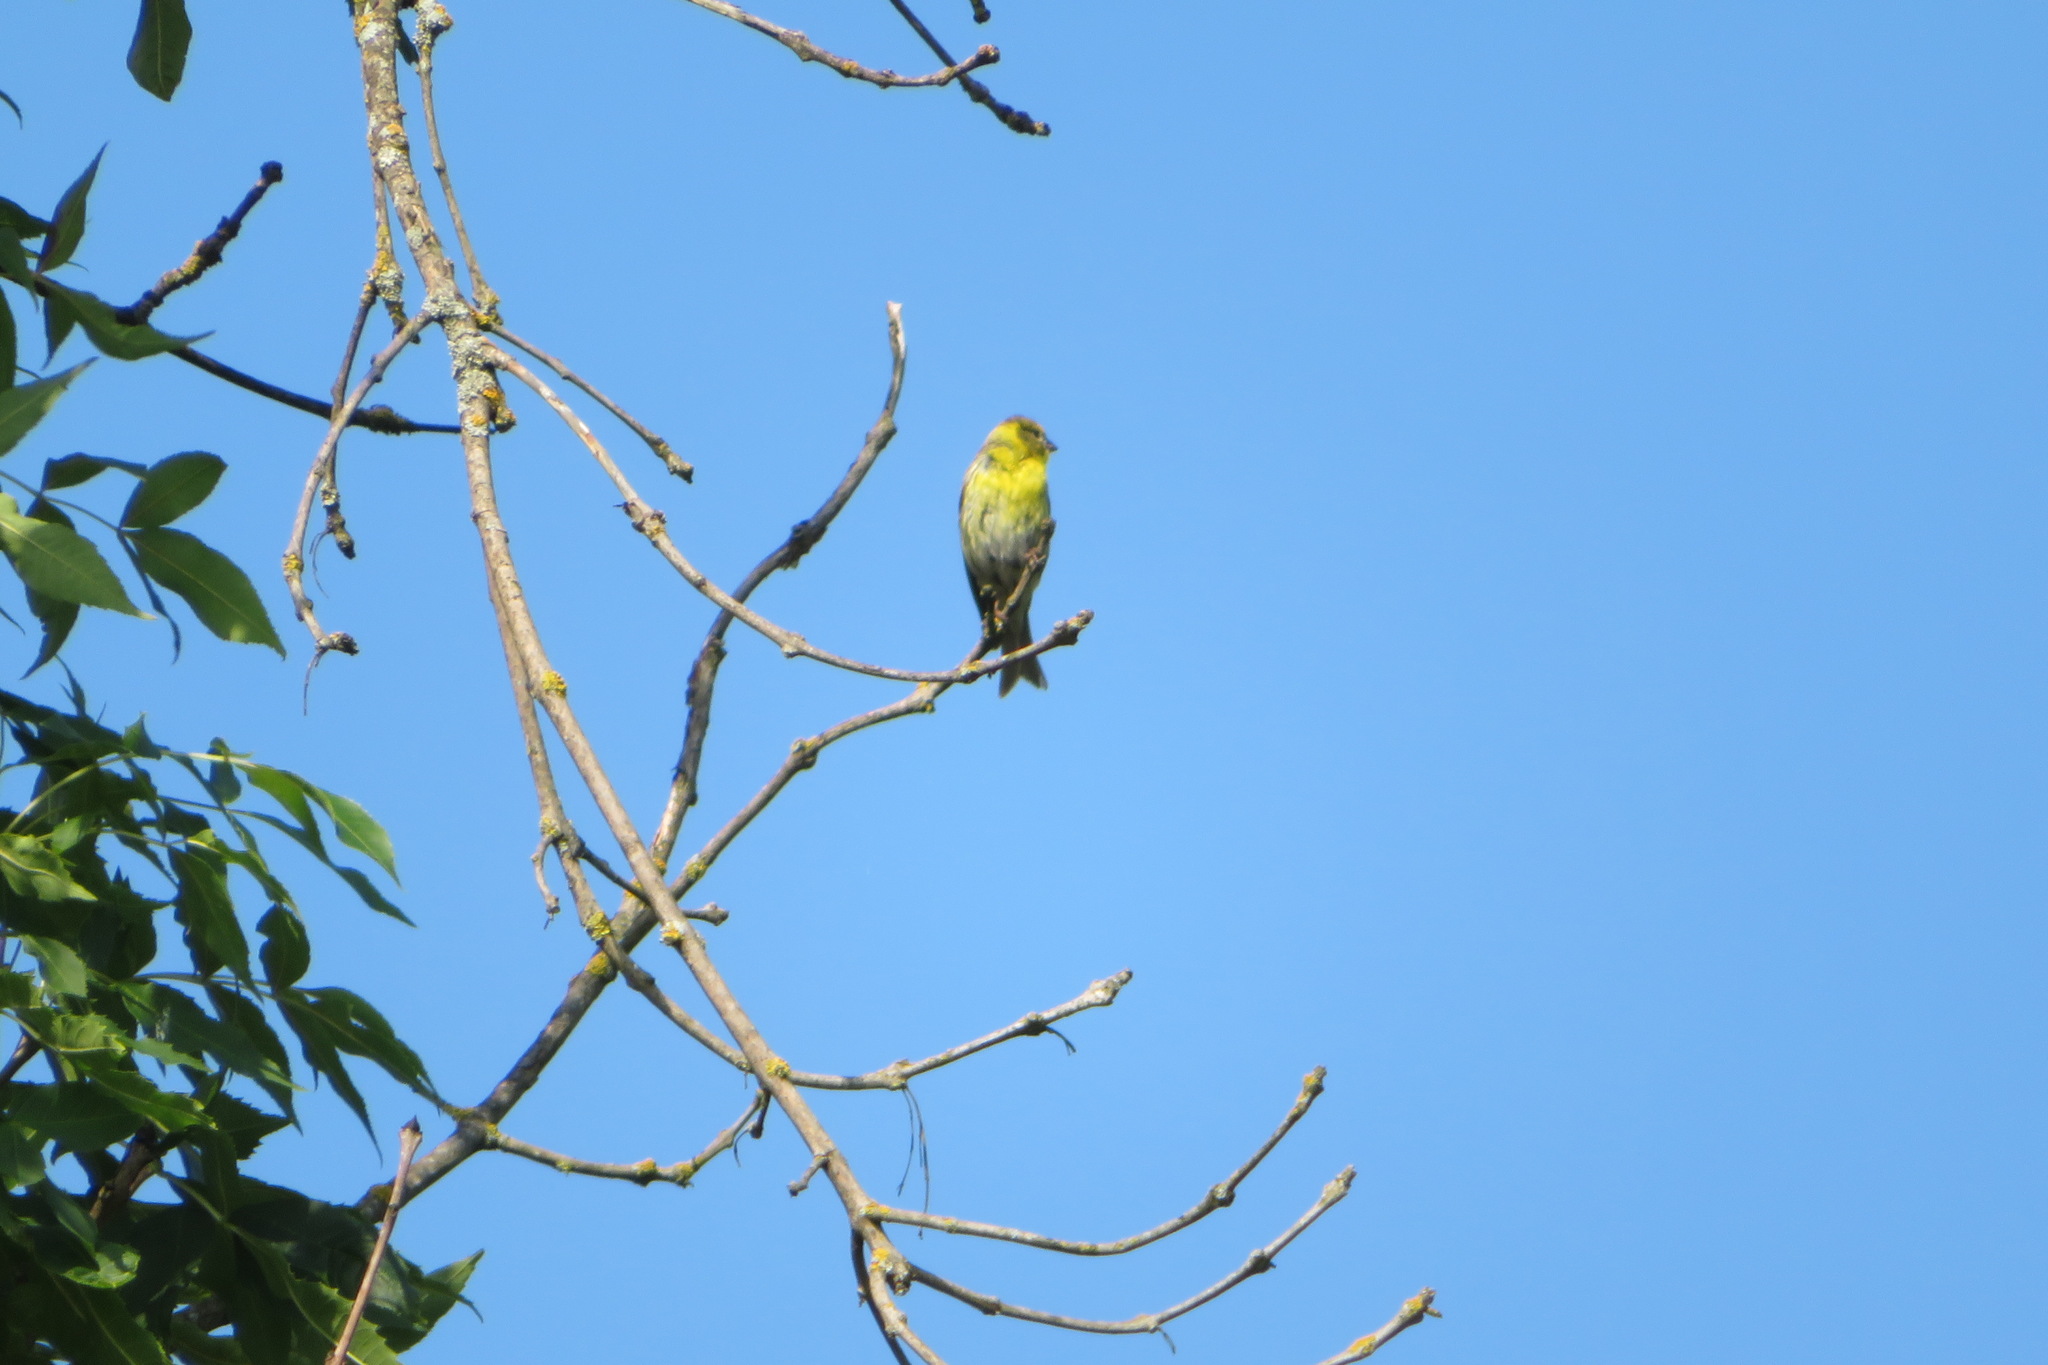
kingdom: Animalia
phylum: Chordata
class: Aves
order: Passeriformes
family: Fringillidae
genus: Serinus
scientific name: Serinus serinus
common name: European serin
